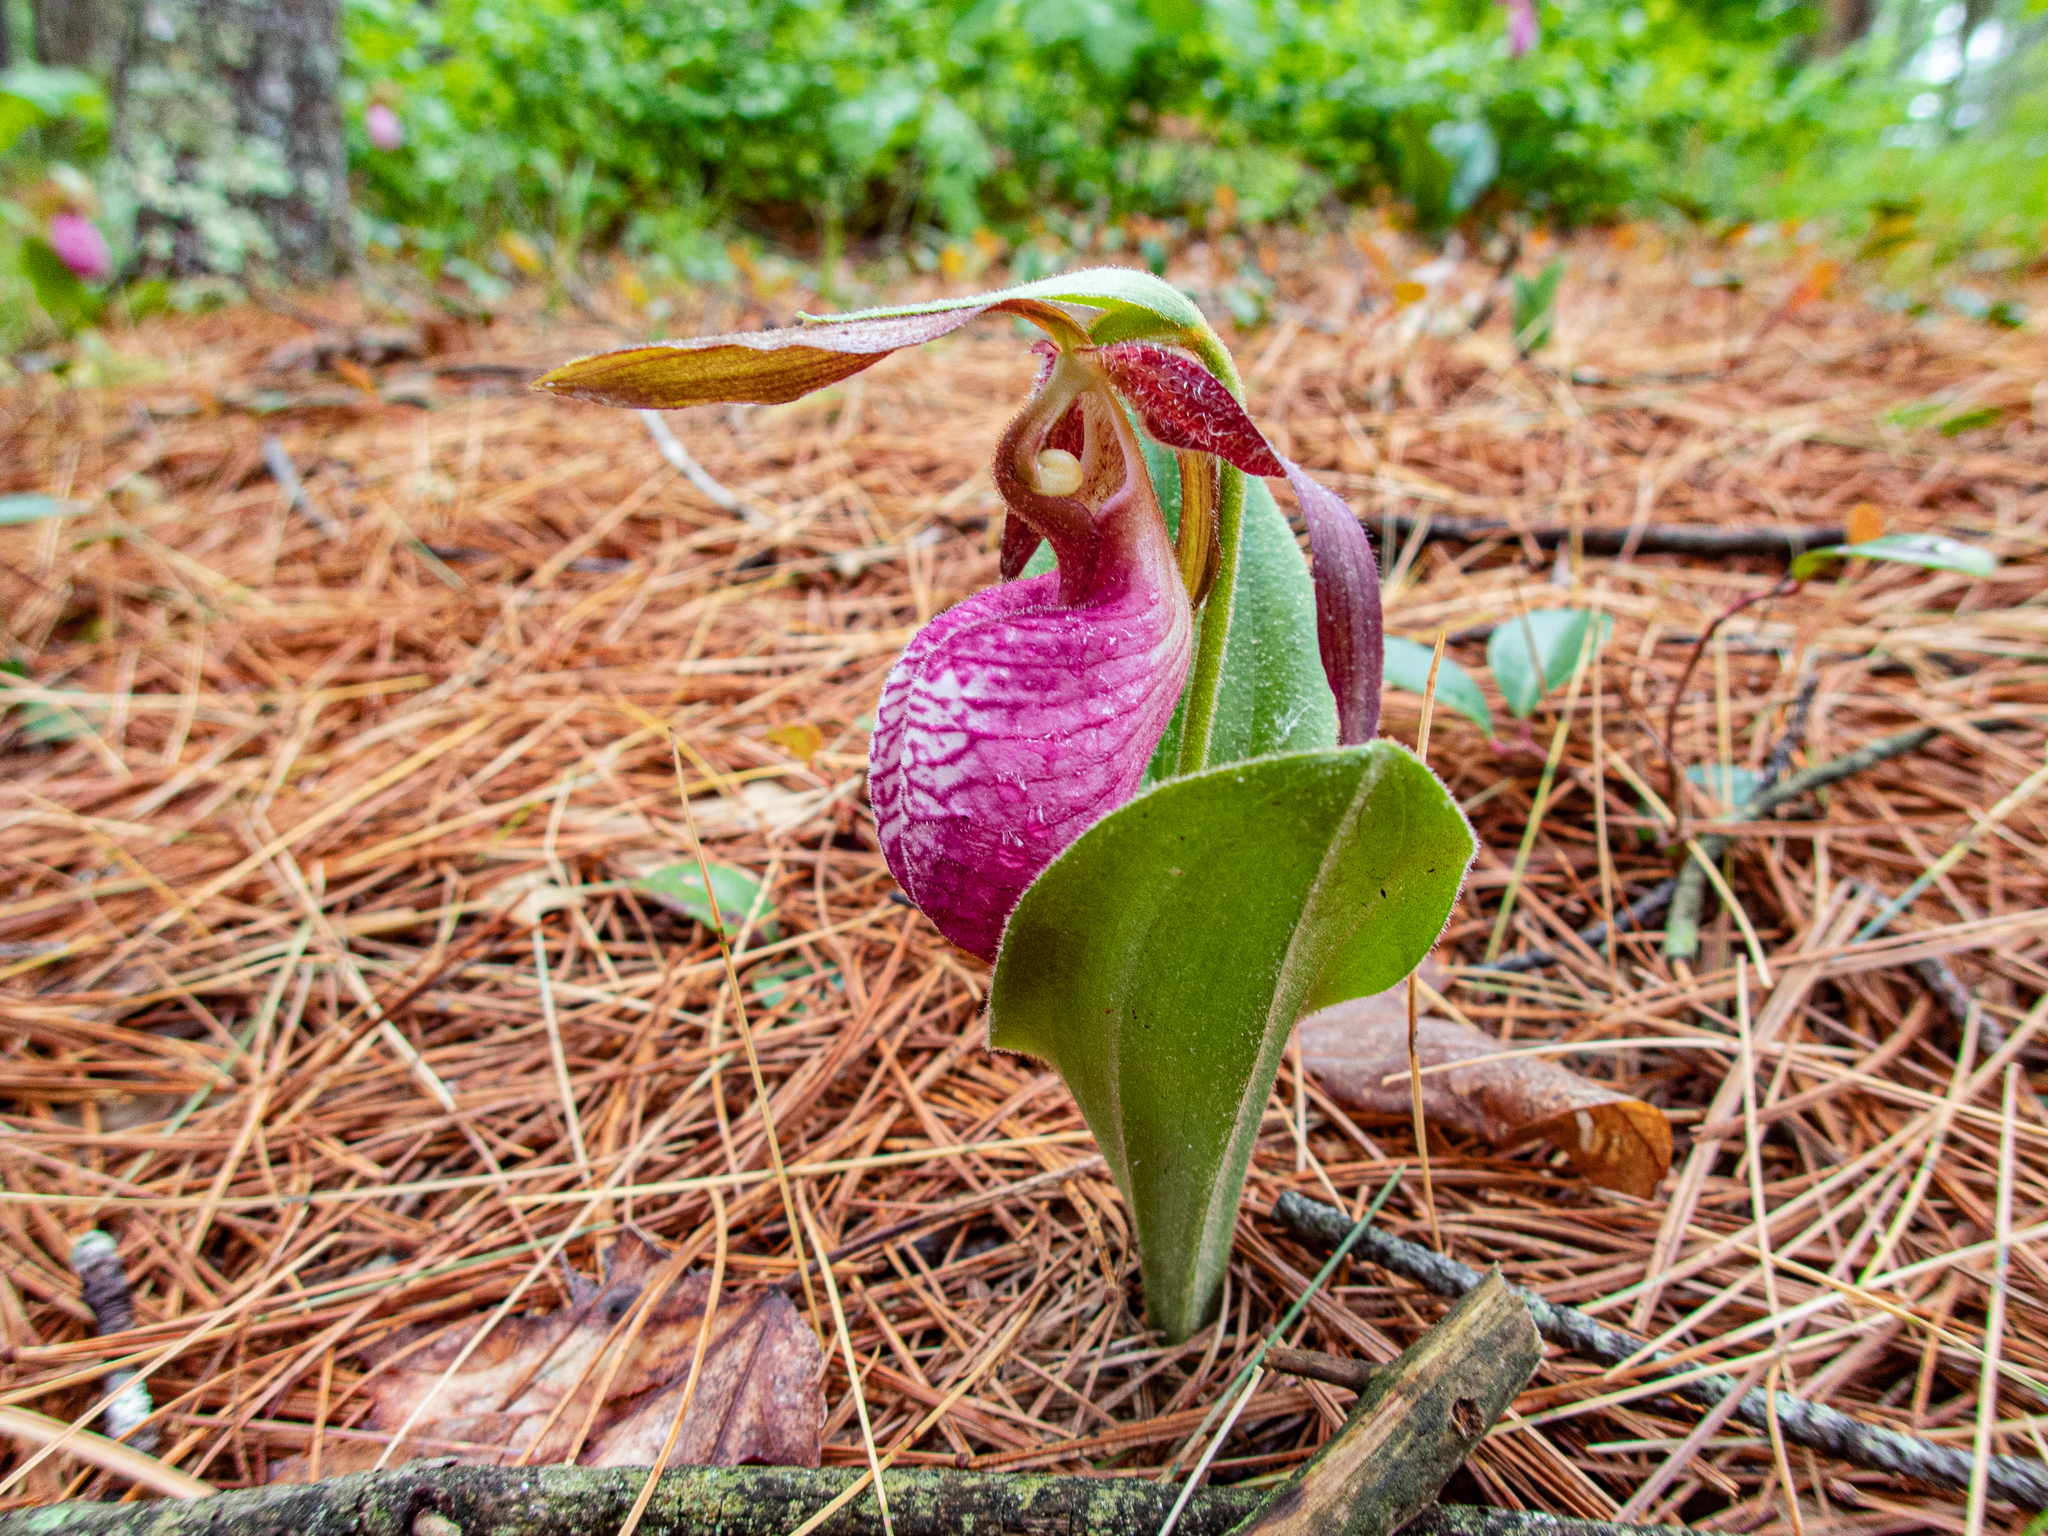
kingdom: Plantae
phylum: Tracheophyta
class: Liliopsida
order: Asparagales
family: Orchidaceae
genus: Cypripedium
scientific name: Cypripedium acaule
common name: Pink lady's-slipper
